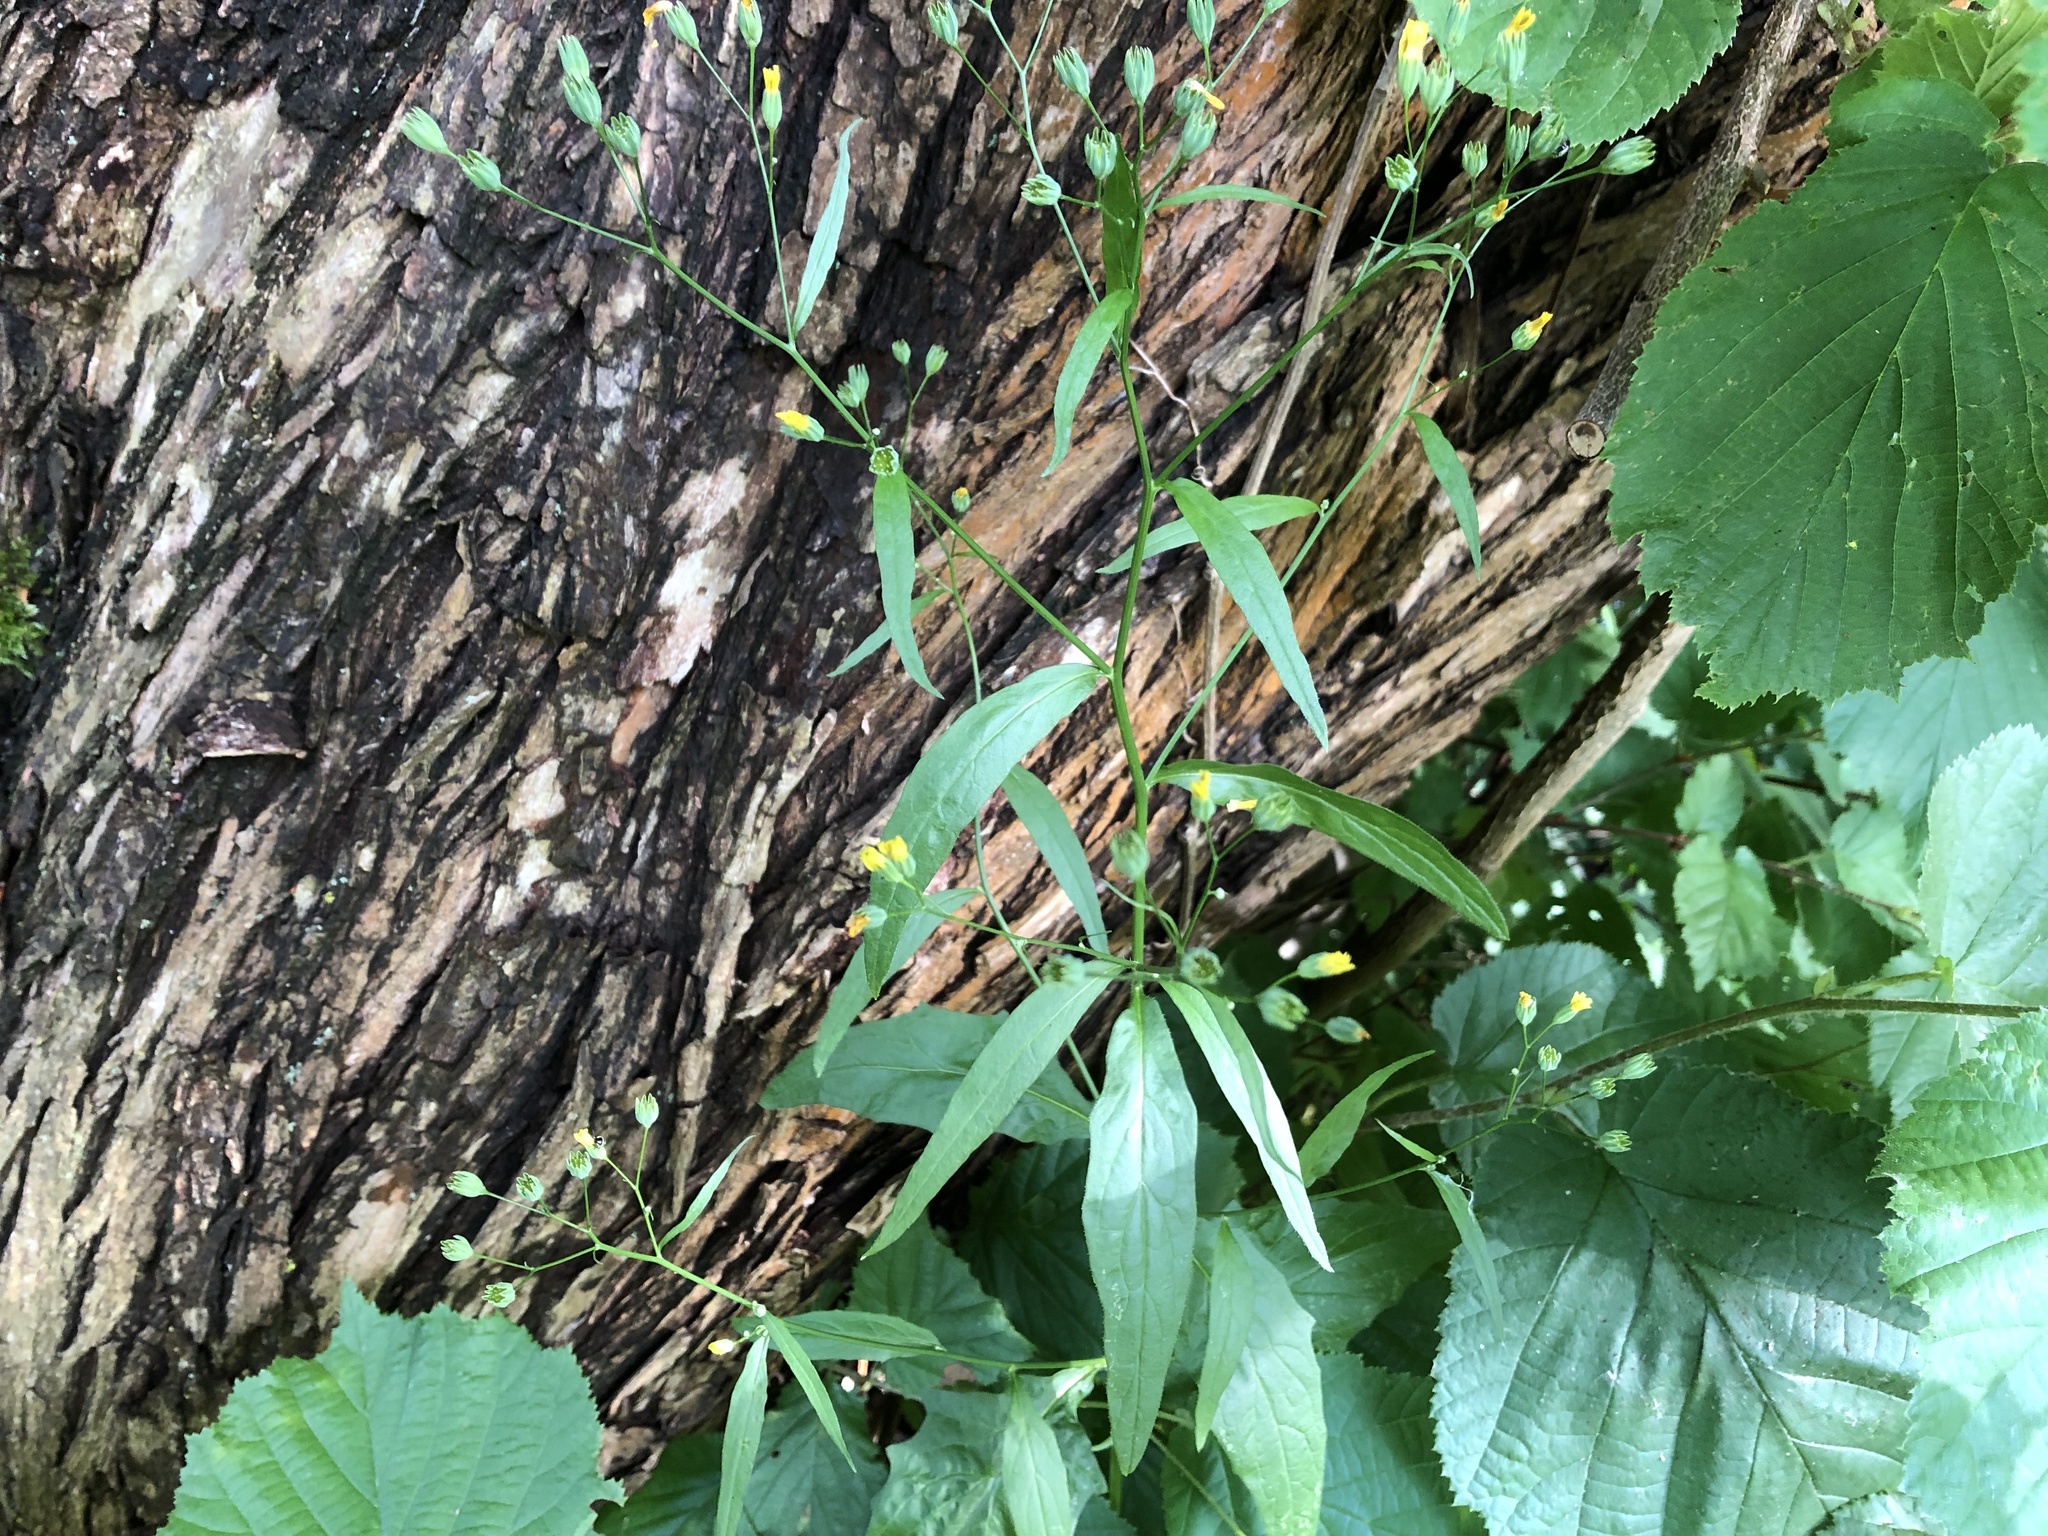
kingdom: Plantae
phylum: Tracheophyta
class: Magnoliopsida
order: Asterales
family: Asteraceae
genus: Lapsana
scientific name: Lapsana communis
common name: Nipplewort
